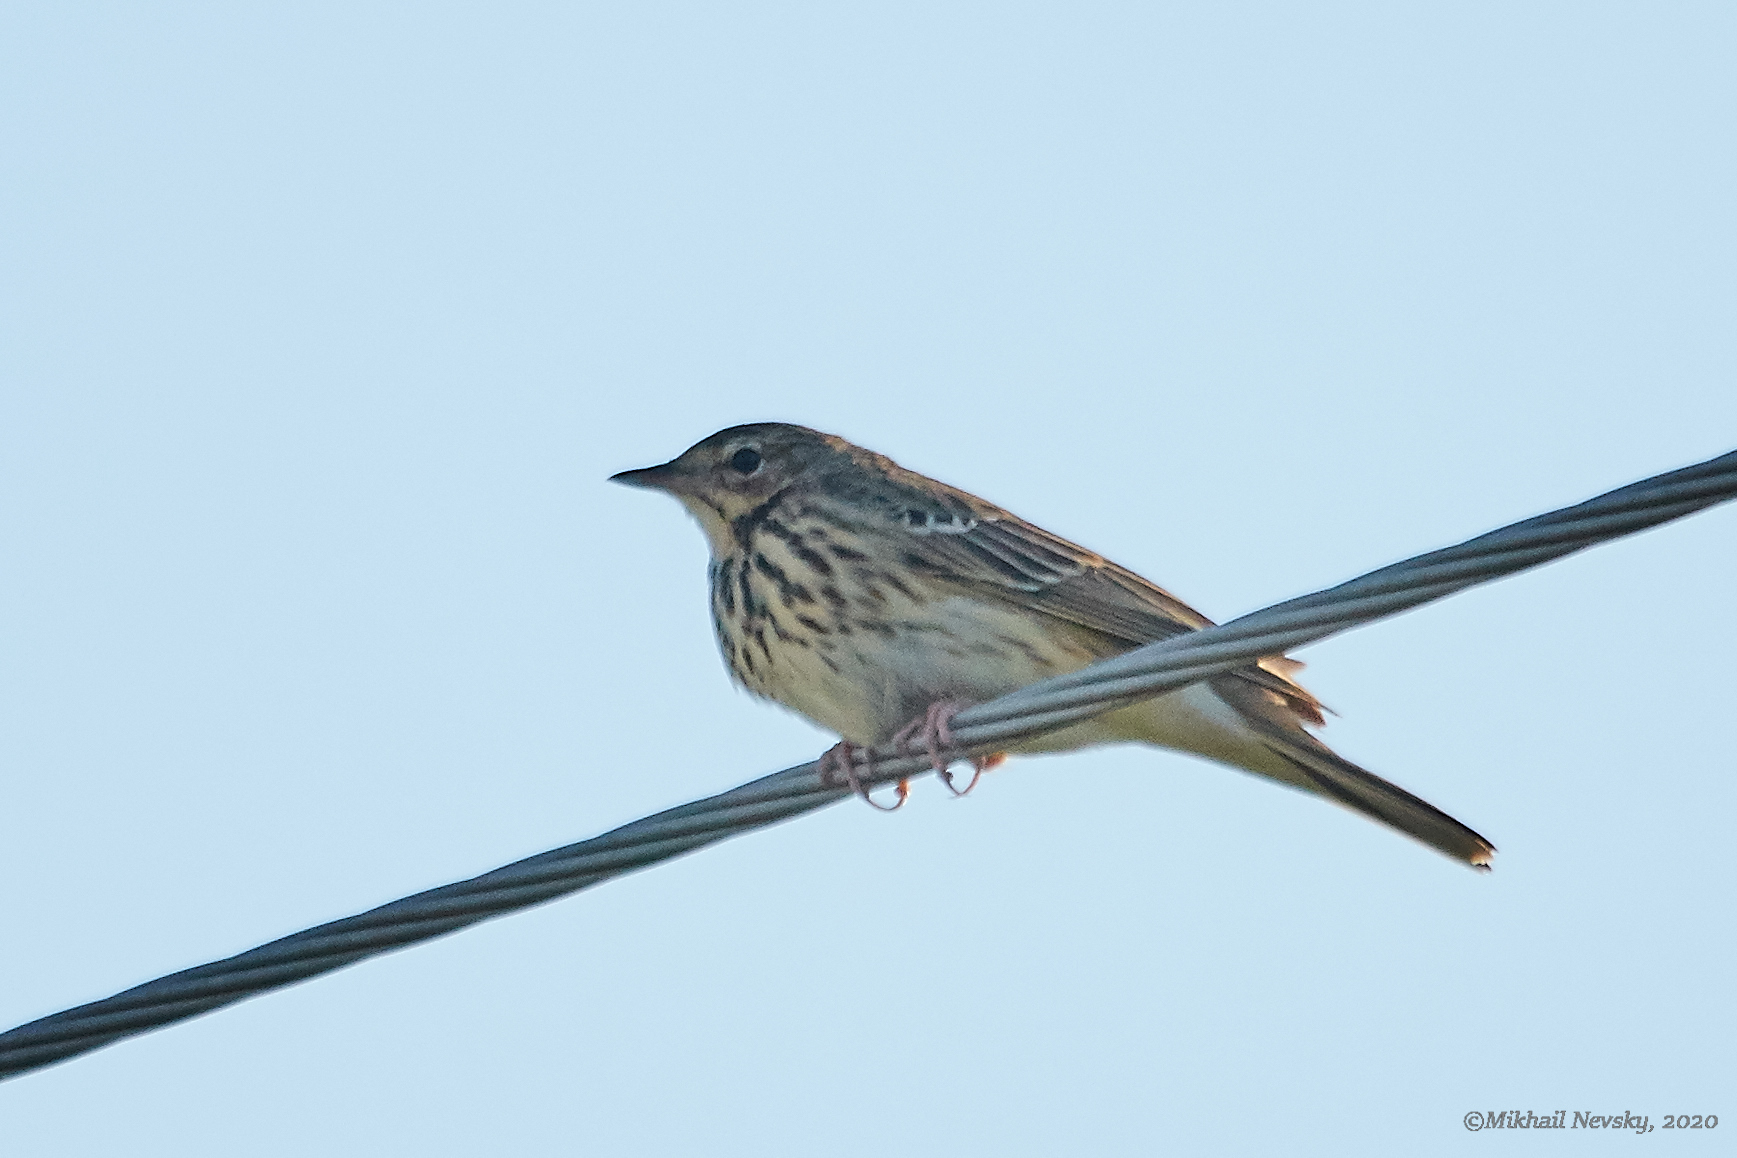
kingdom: Animalia
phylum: Chordata
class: Aves
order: Passeriformes
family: Motacillidae
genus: Anthus
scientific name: Anthus trivialis
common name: Tree pipit
